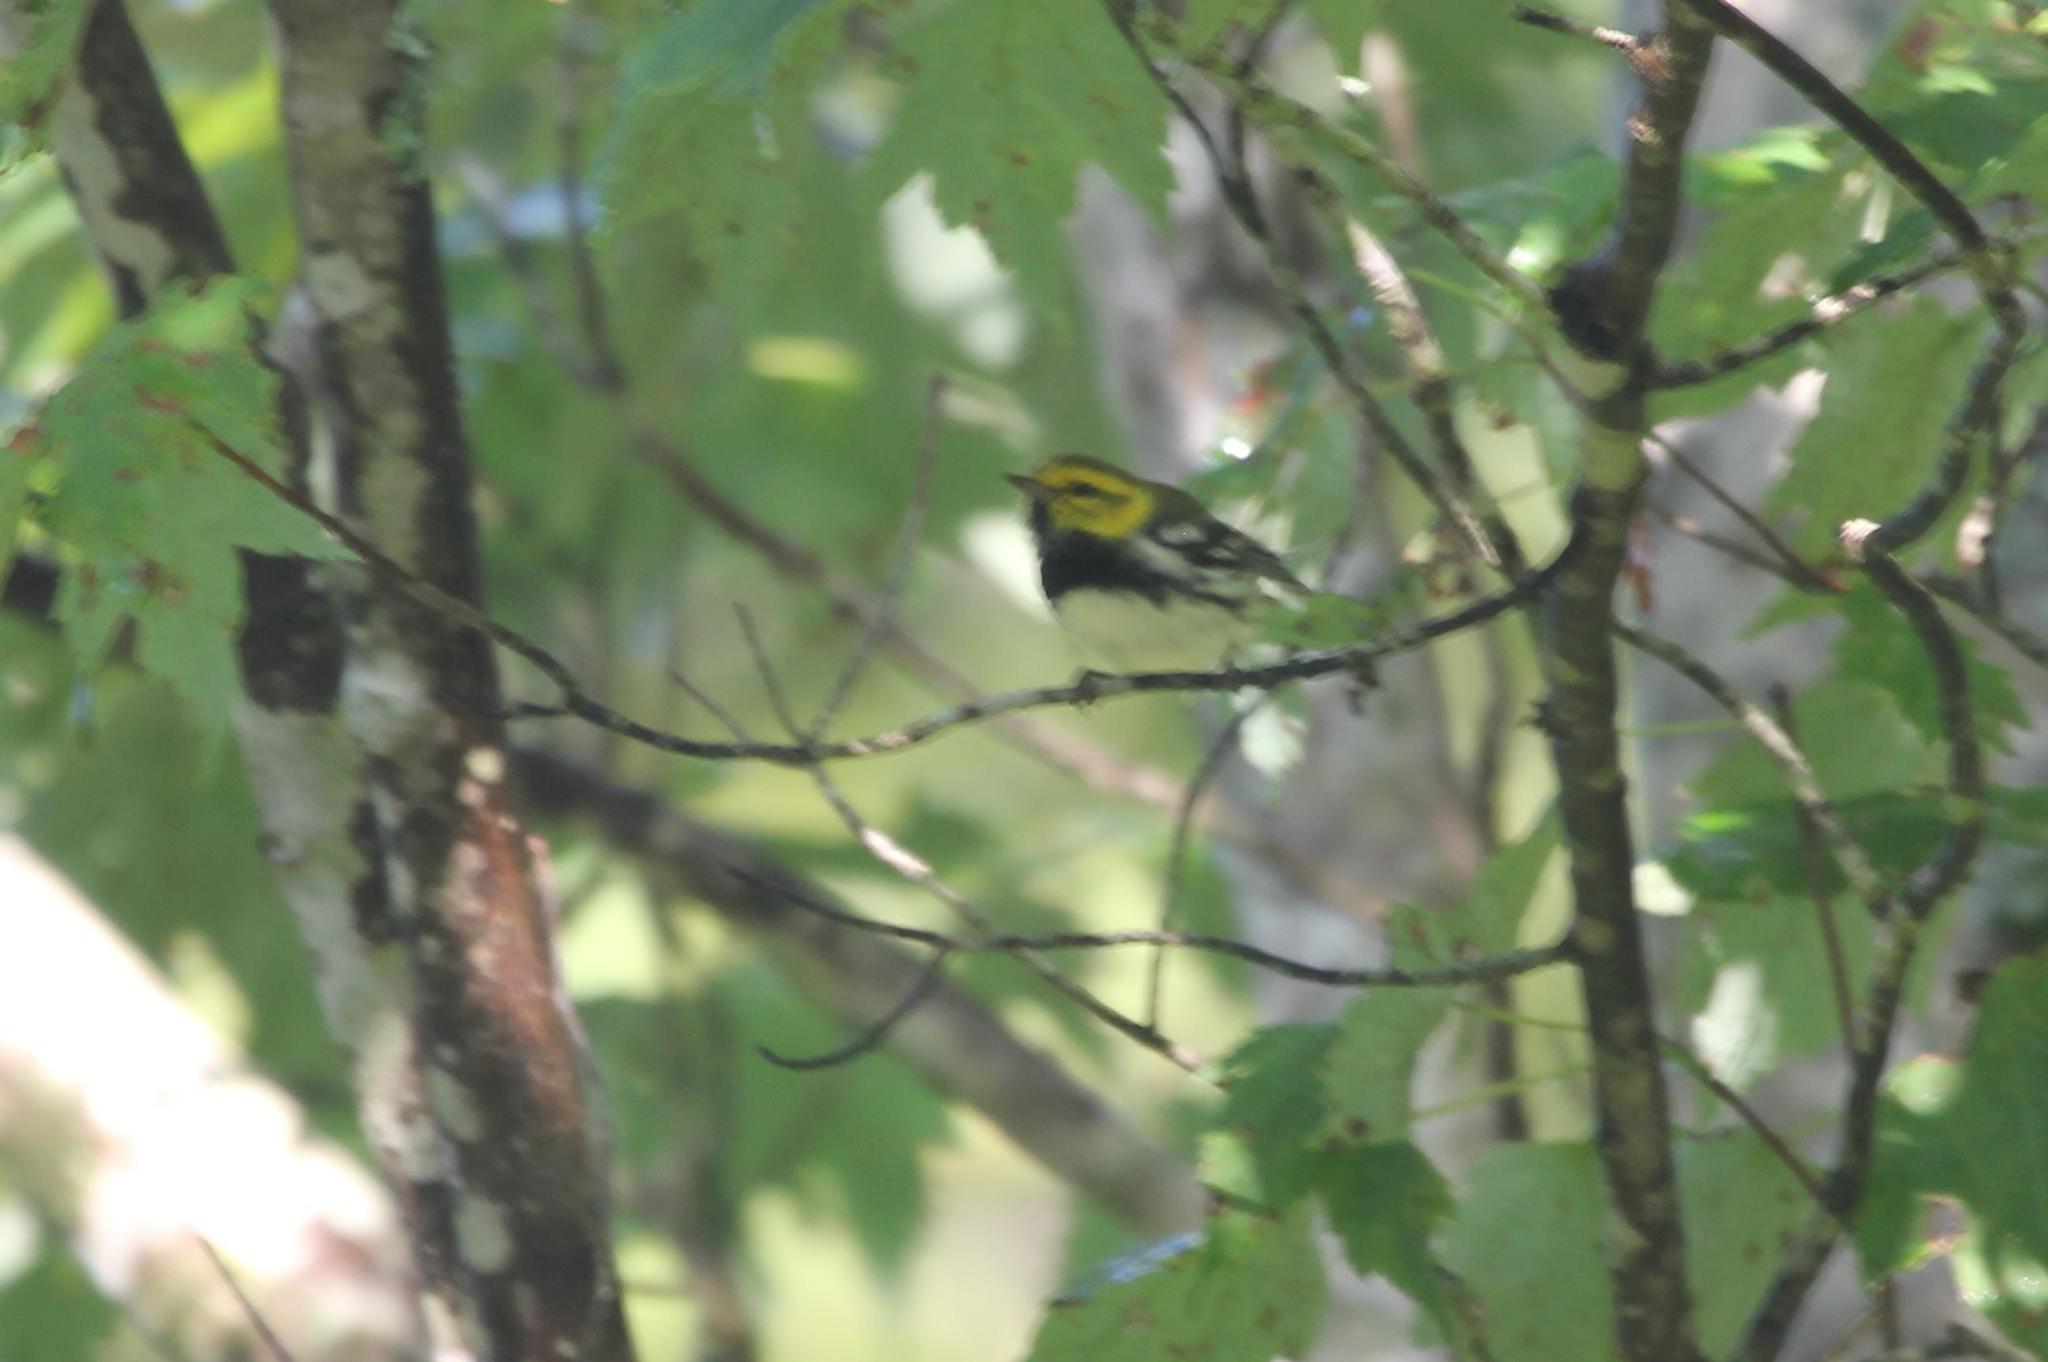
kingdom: Animalia
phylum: Chordata
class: Aves
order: Passeriformes
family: Parulidae
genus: Setophaga
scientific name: Setophaga virens
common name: Black-throated green warbler
